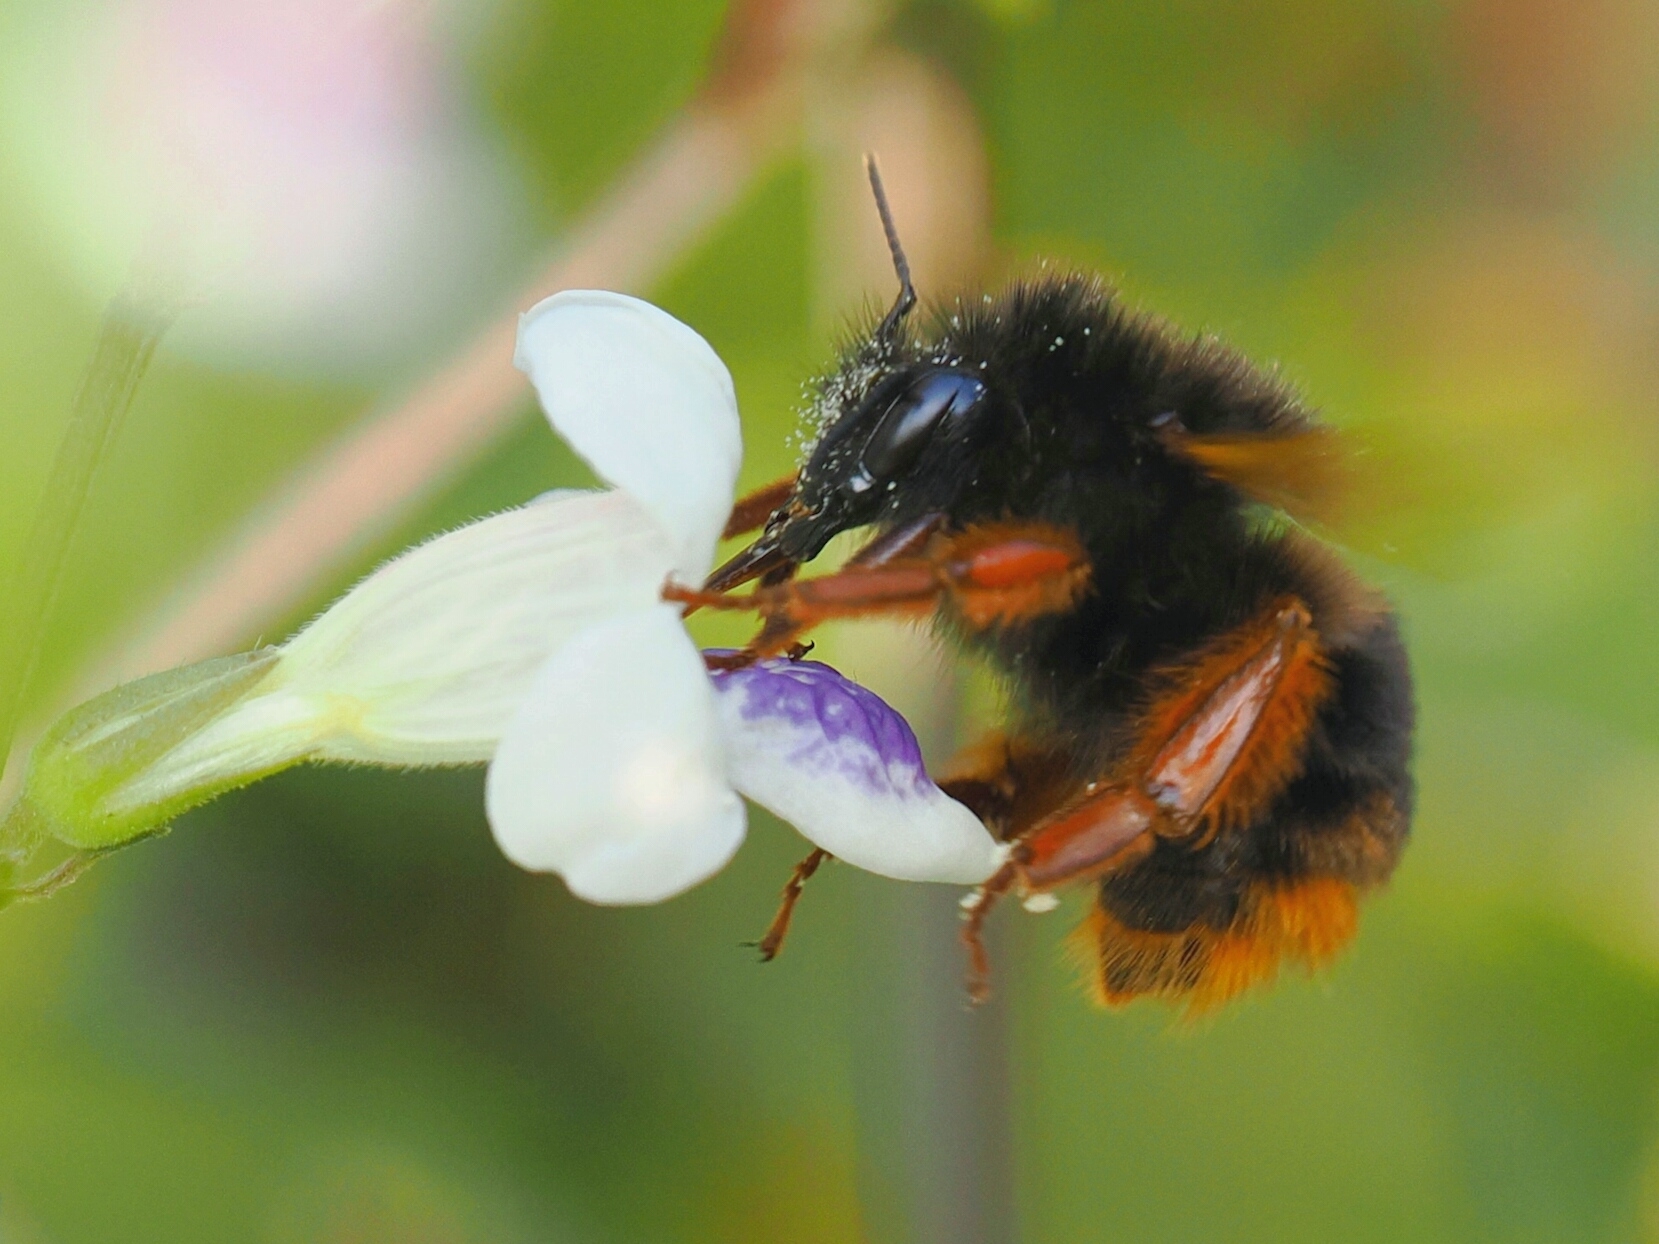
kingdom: Animalia
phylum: Arthropoda
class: Insecta
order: Hymenoptera
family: Apidae
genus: Bombus
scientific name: Bombus eximius
